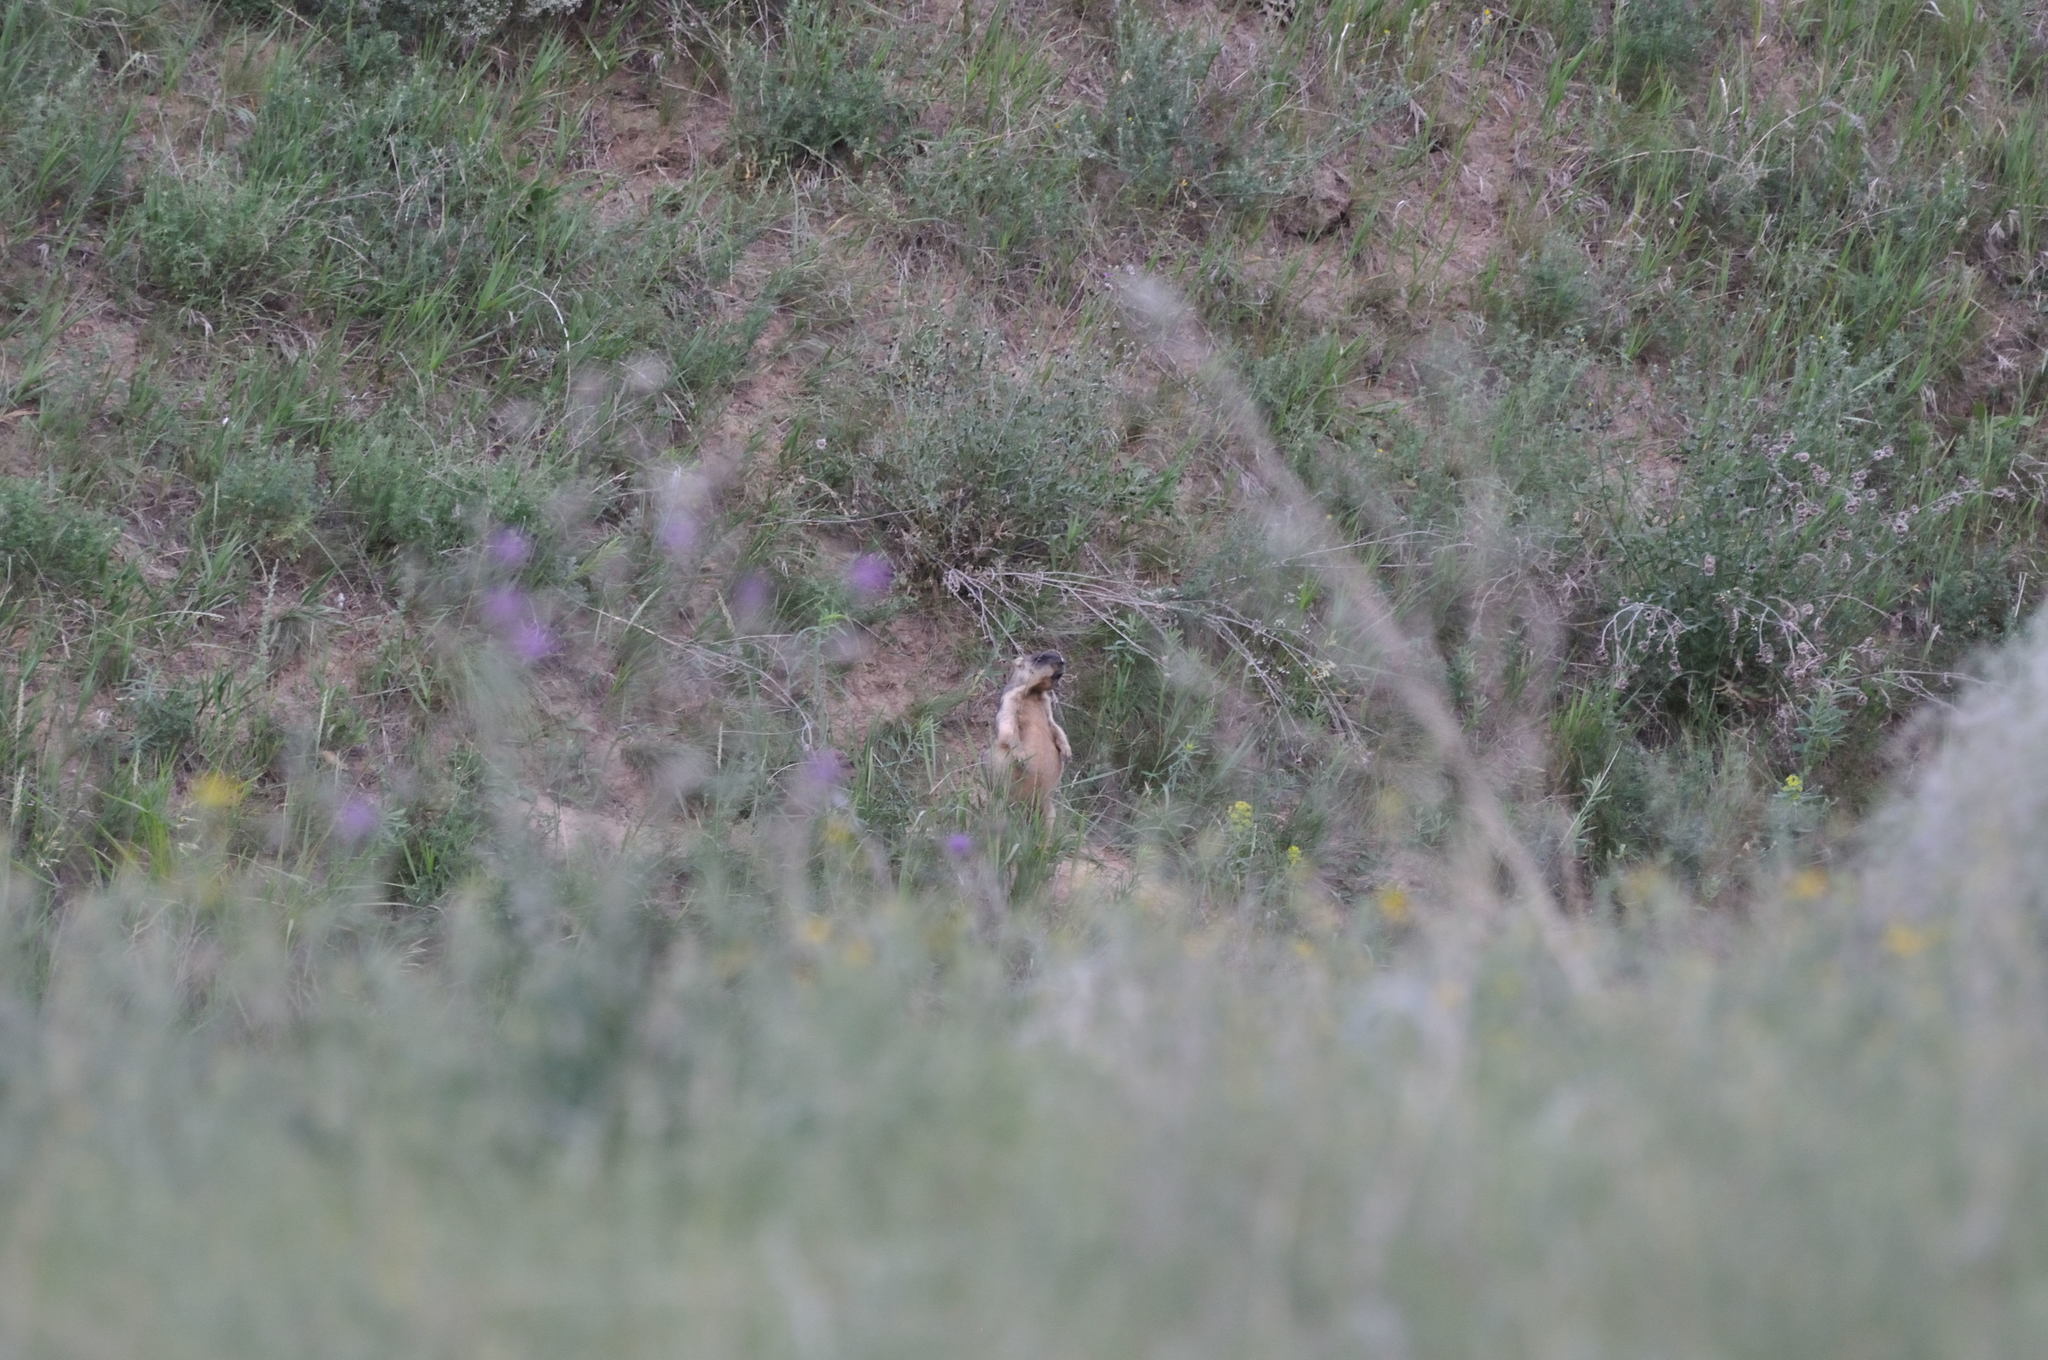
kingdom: Animalia
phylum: Chordata
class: Mammalia
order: Rodentia
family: Sciuridae
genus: Marmota
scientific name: Marmota bobak
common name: Bobak marmot
